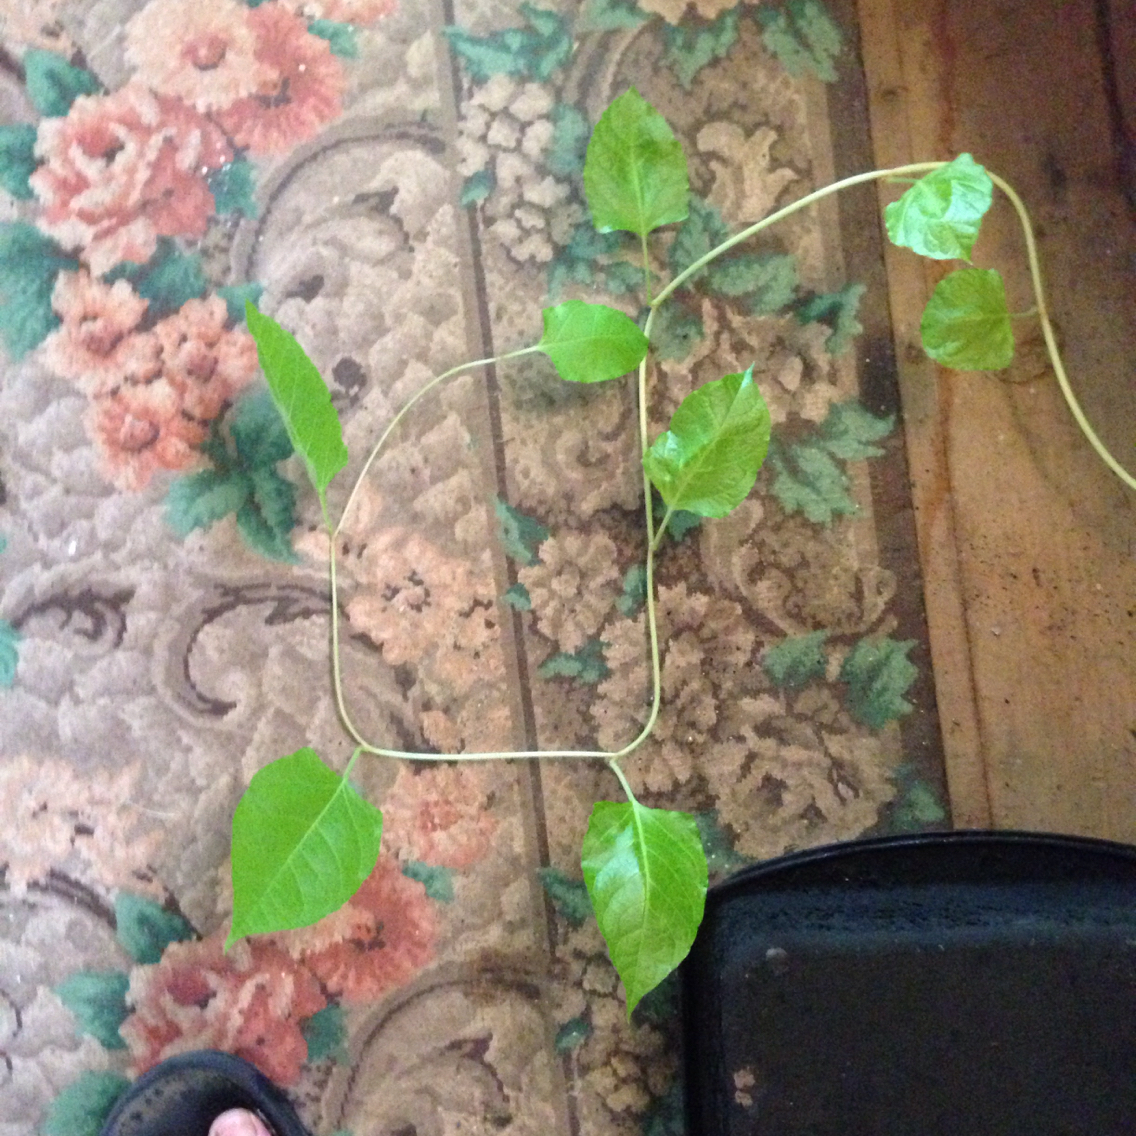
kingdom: Plantae
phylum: Tracheophyta
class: Magnoliopsida
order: Caryophyllales
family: Polygonaceae
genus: Reynoutria
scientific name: Reynoutria japonica
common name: Japanese knotweed
